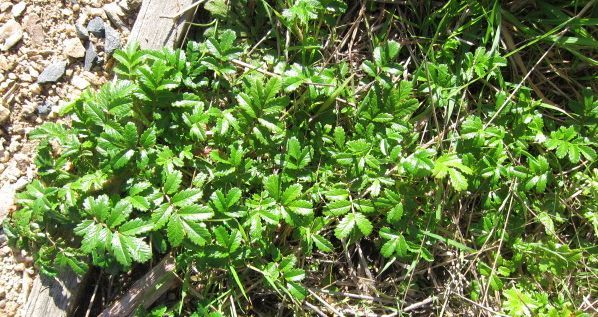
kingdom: Plantae
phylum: Tracheophyta
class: Magnoliopsida
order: Rosales
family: Rosaceae
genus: Acaena
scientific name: Acaena pallida
